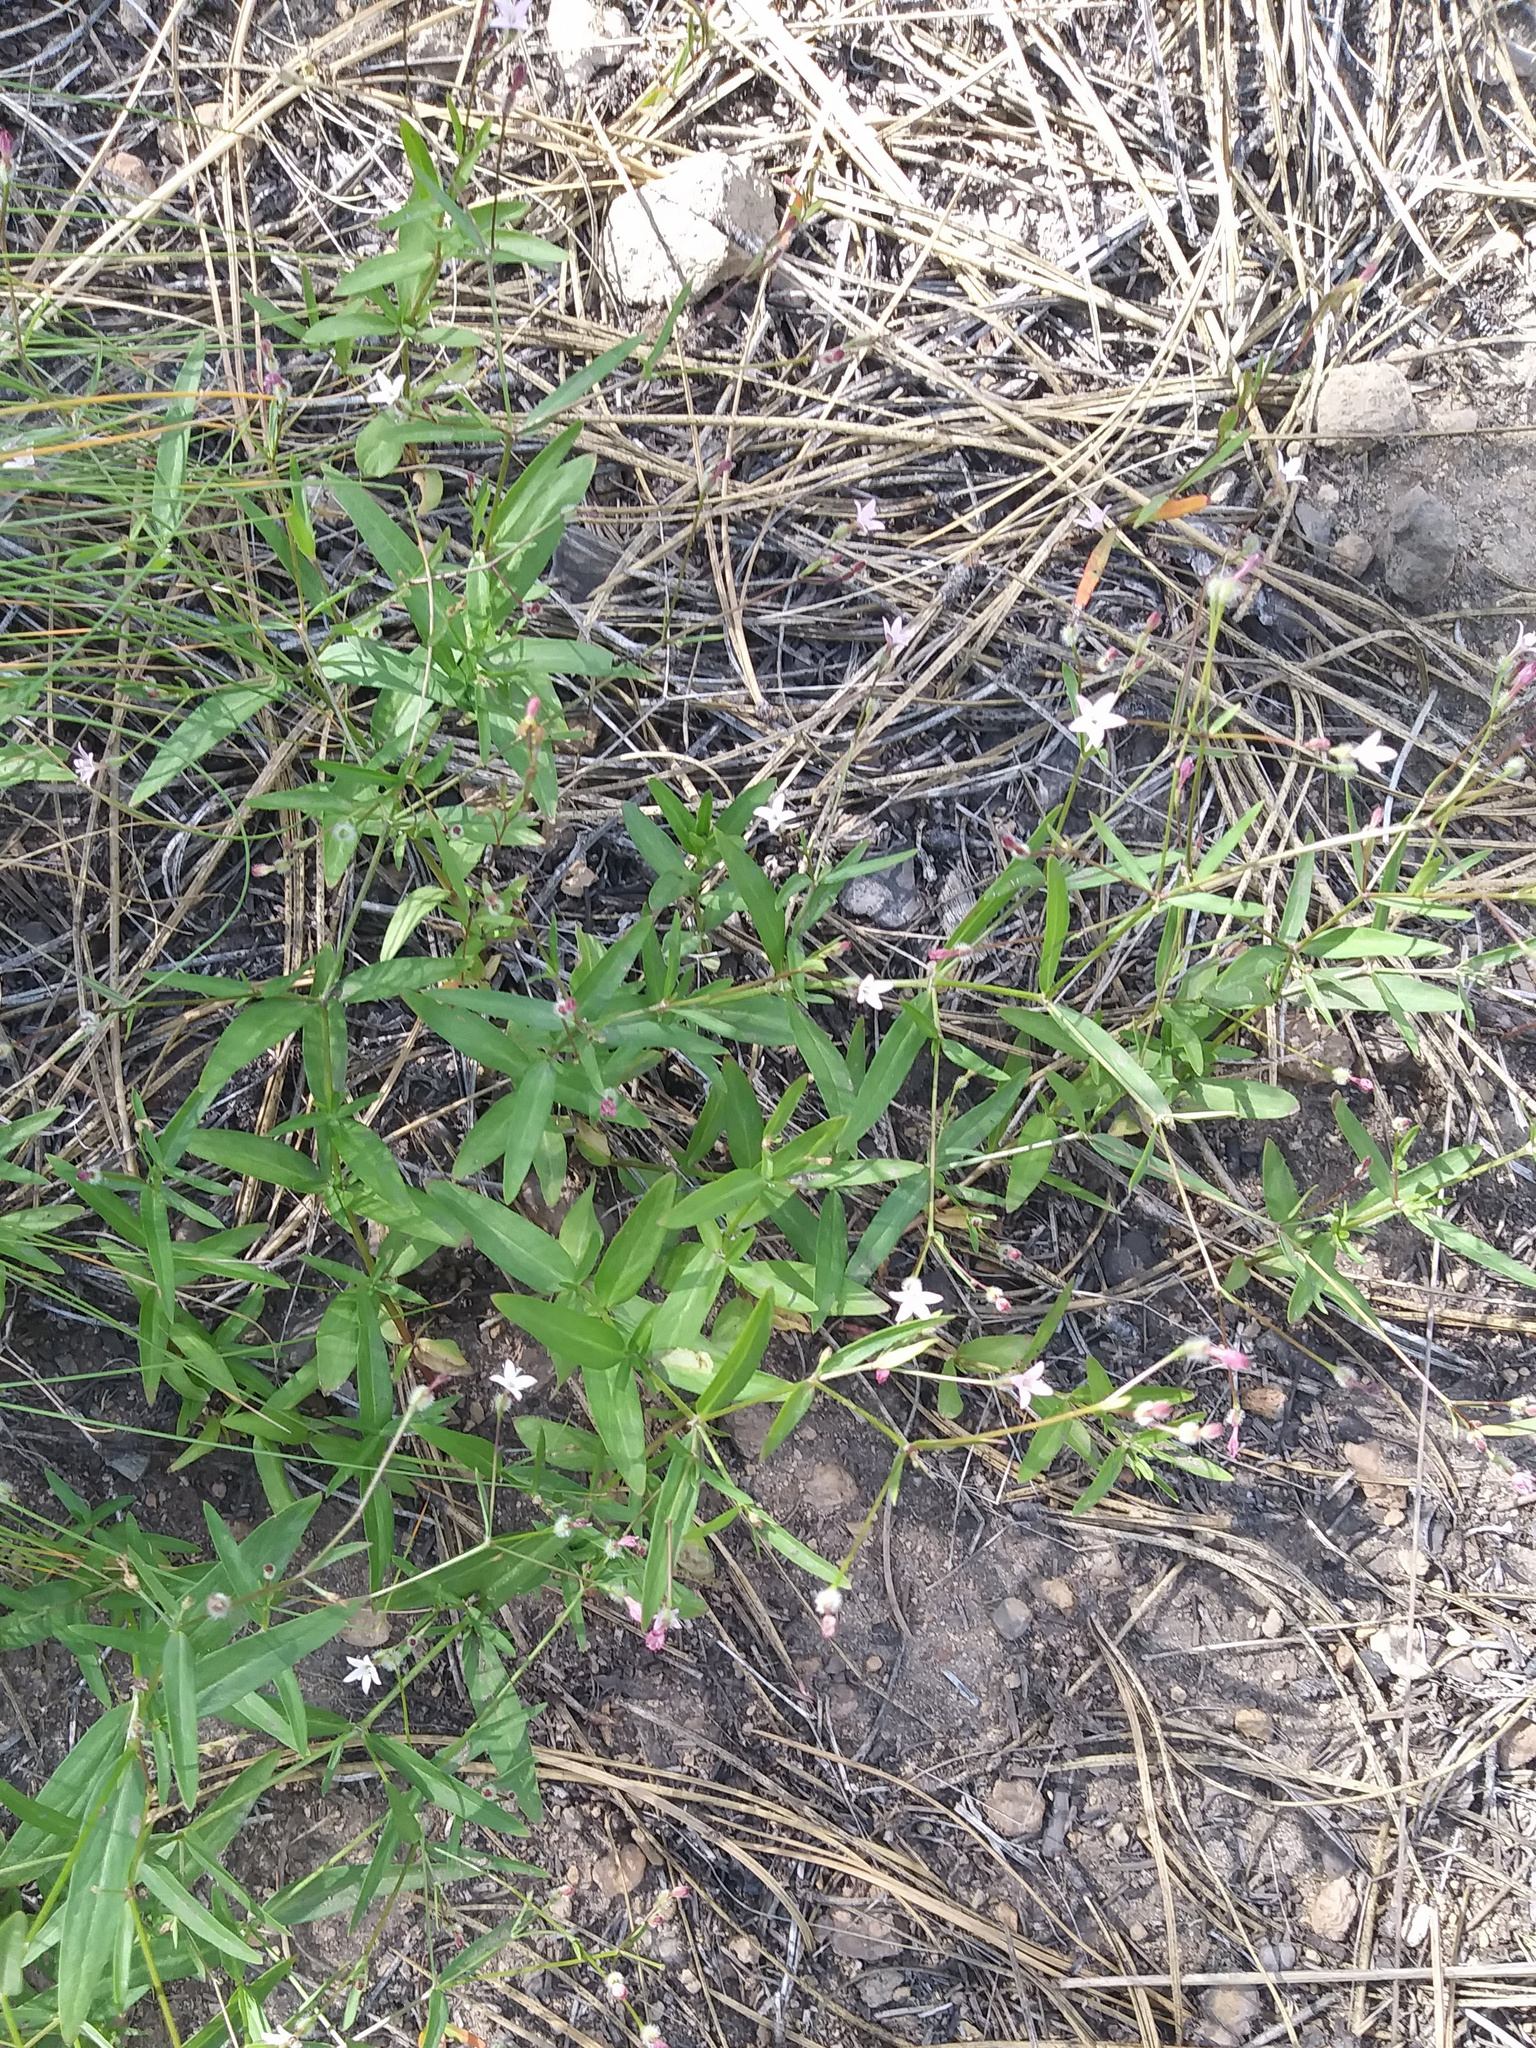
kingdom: Plantae
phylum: Tracheophyta
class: Magnoliopsida
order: Gentianales
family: Rubiaceae
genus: Kelloggia
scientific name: Kelloggia galioides
